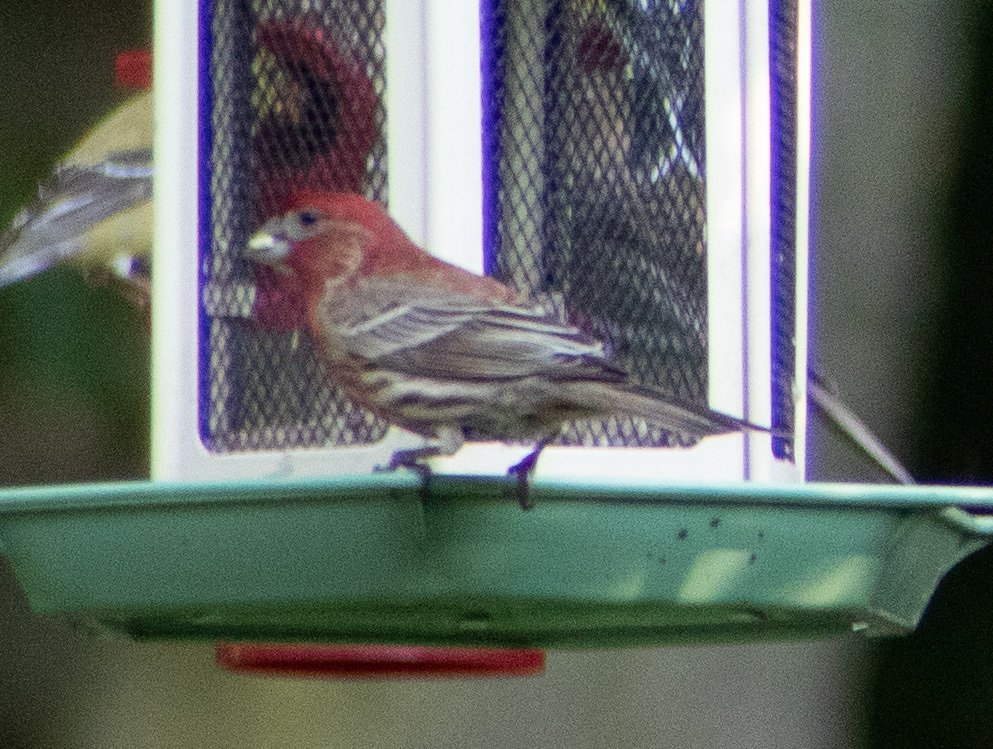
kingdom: Animalia
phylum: Chordata
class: Aves
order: Passeriformes
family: Fringillidae
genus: Haemorhous
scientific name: Haemorhous mexicanus
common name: House finch
